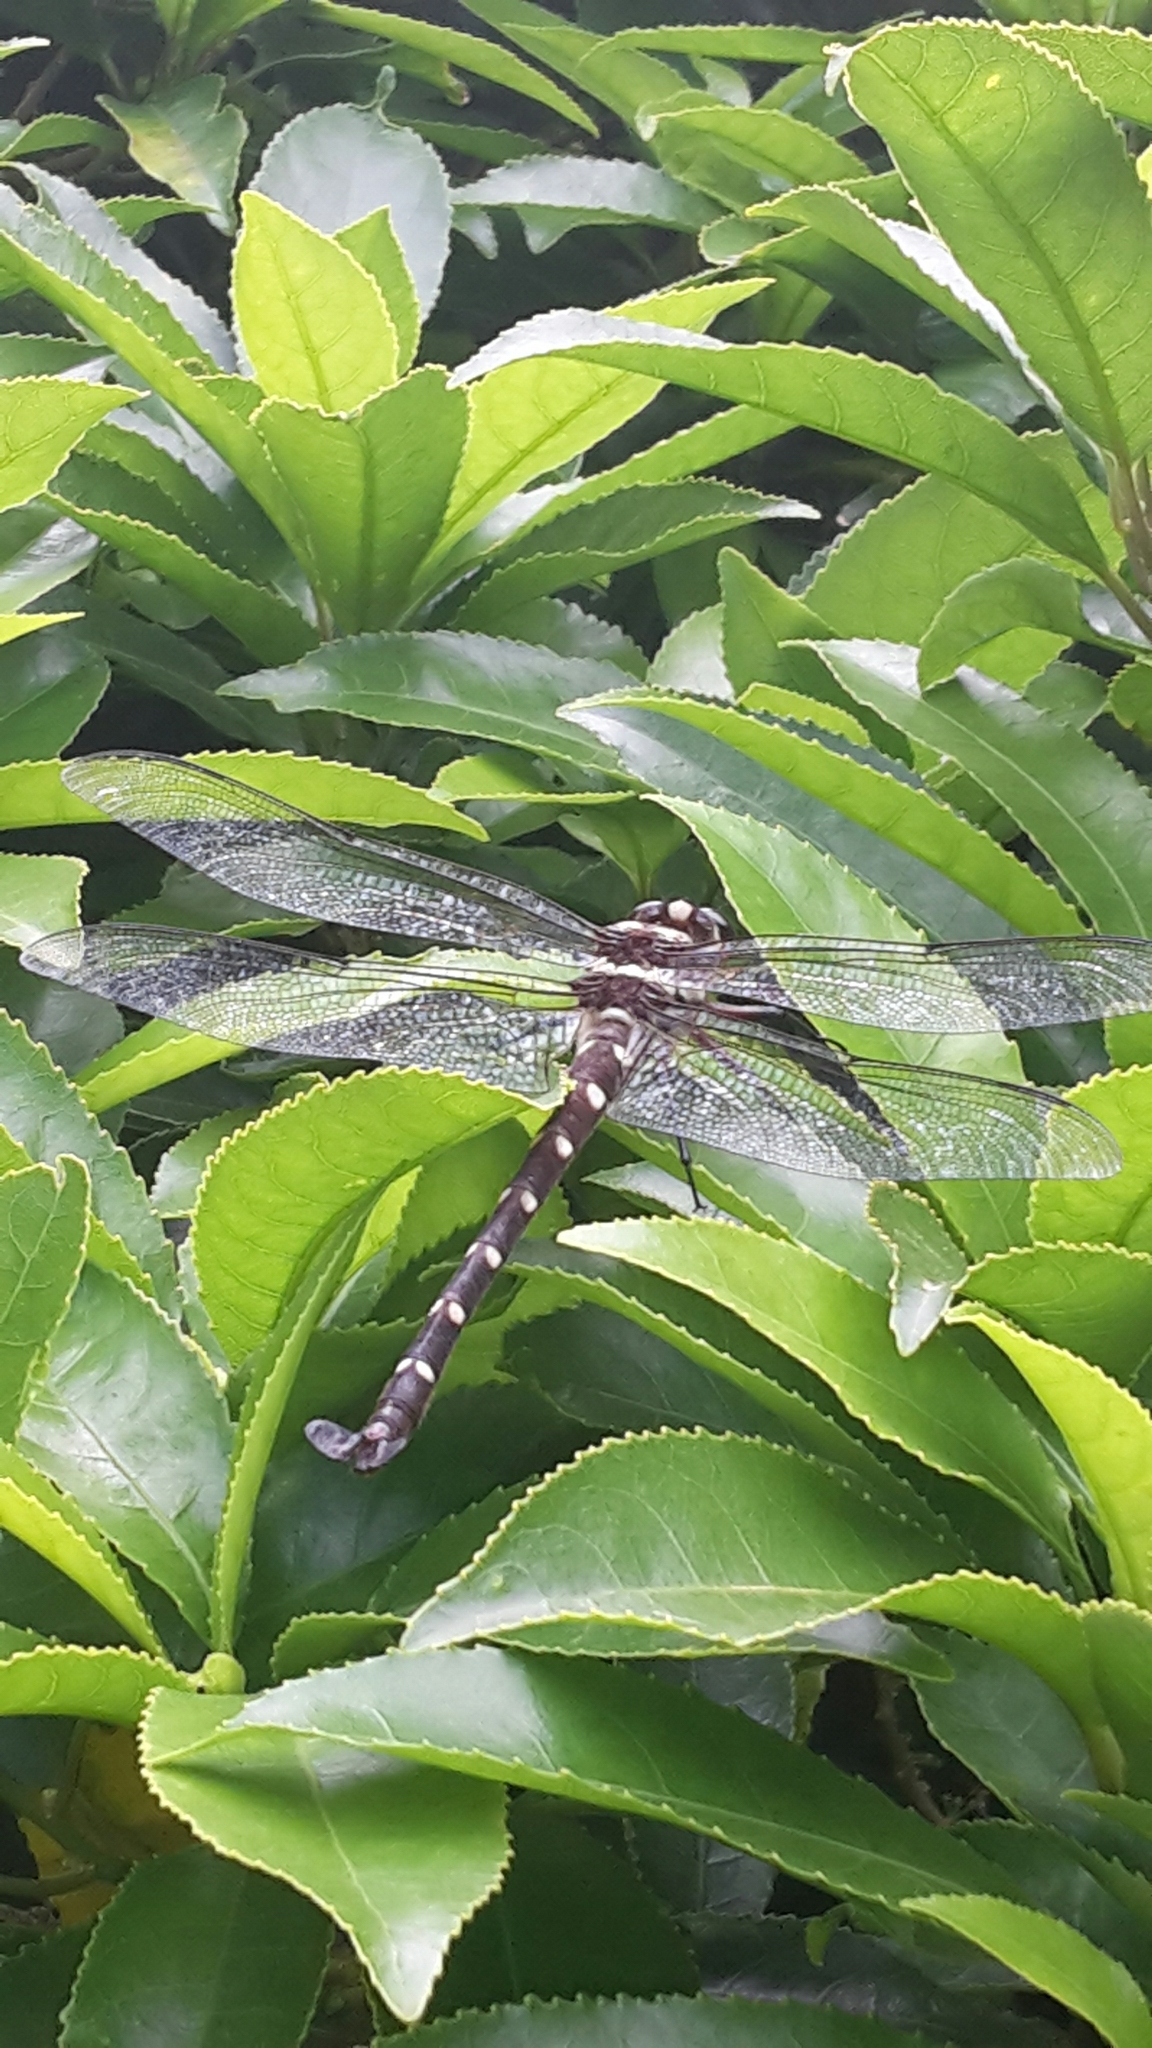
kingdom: Animalia
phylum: Arthropoda
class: Insecta
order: Odonata
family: Petaluridae
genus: Uropetala
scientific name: Uropetala carovei
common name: Bush giant dragonfly
